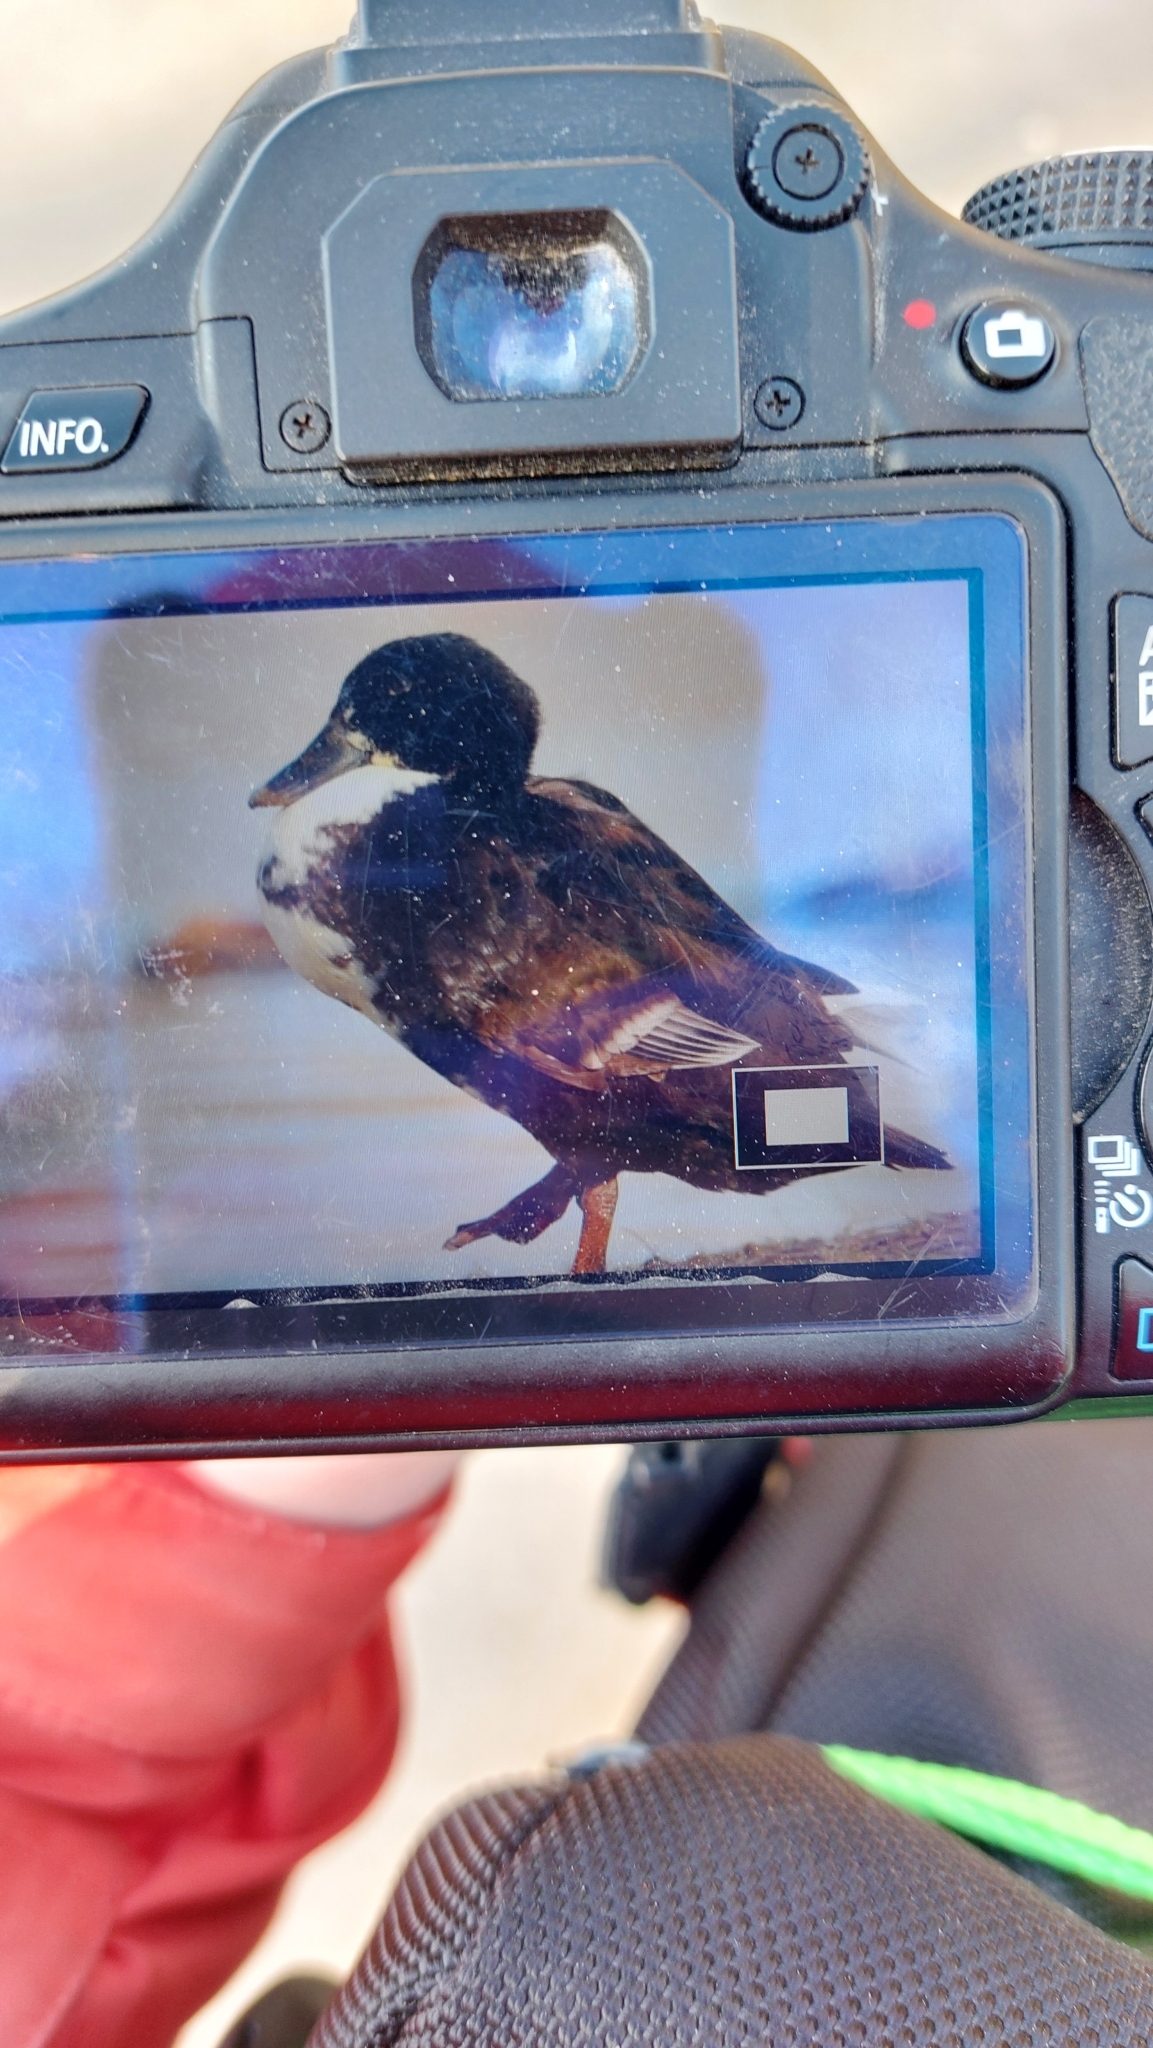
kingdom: Animalia
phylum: Chordata
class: Aves
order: Anseriformes
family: Anatidae
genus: Anas
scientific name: Anas platyrhynchos
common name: Mallard
